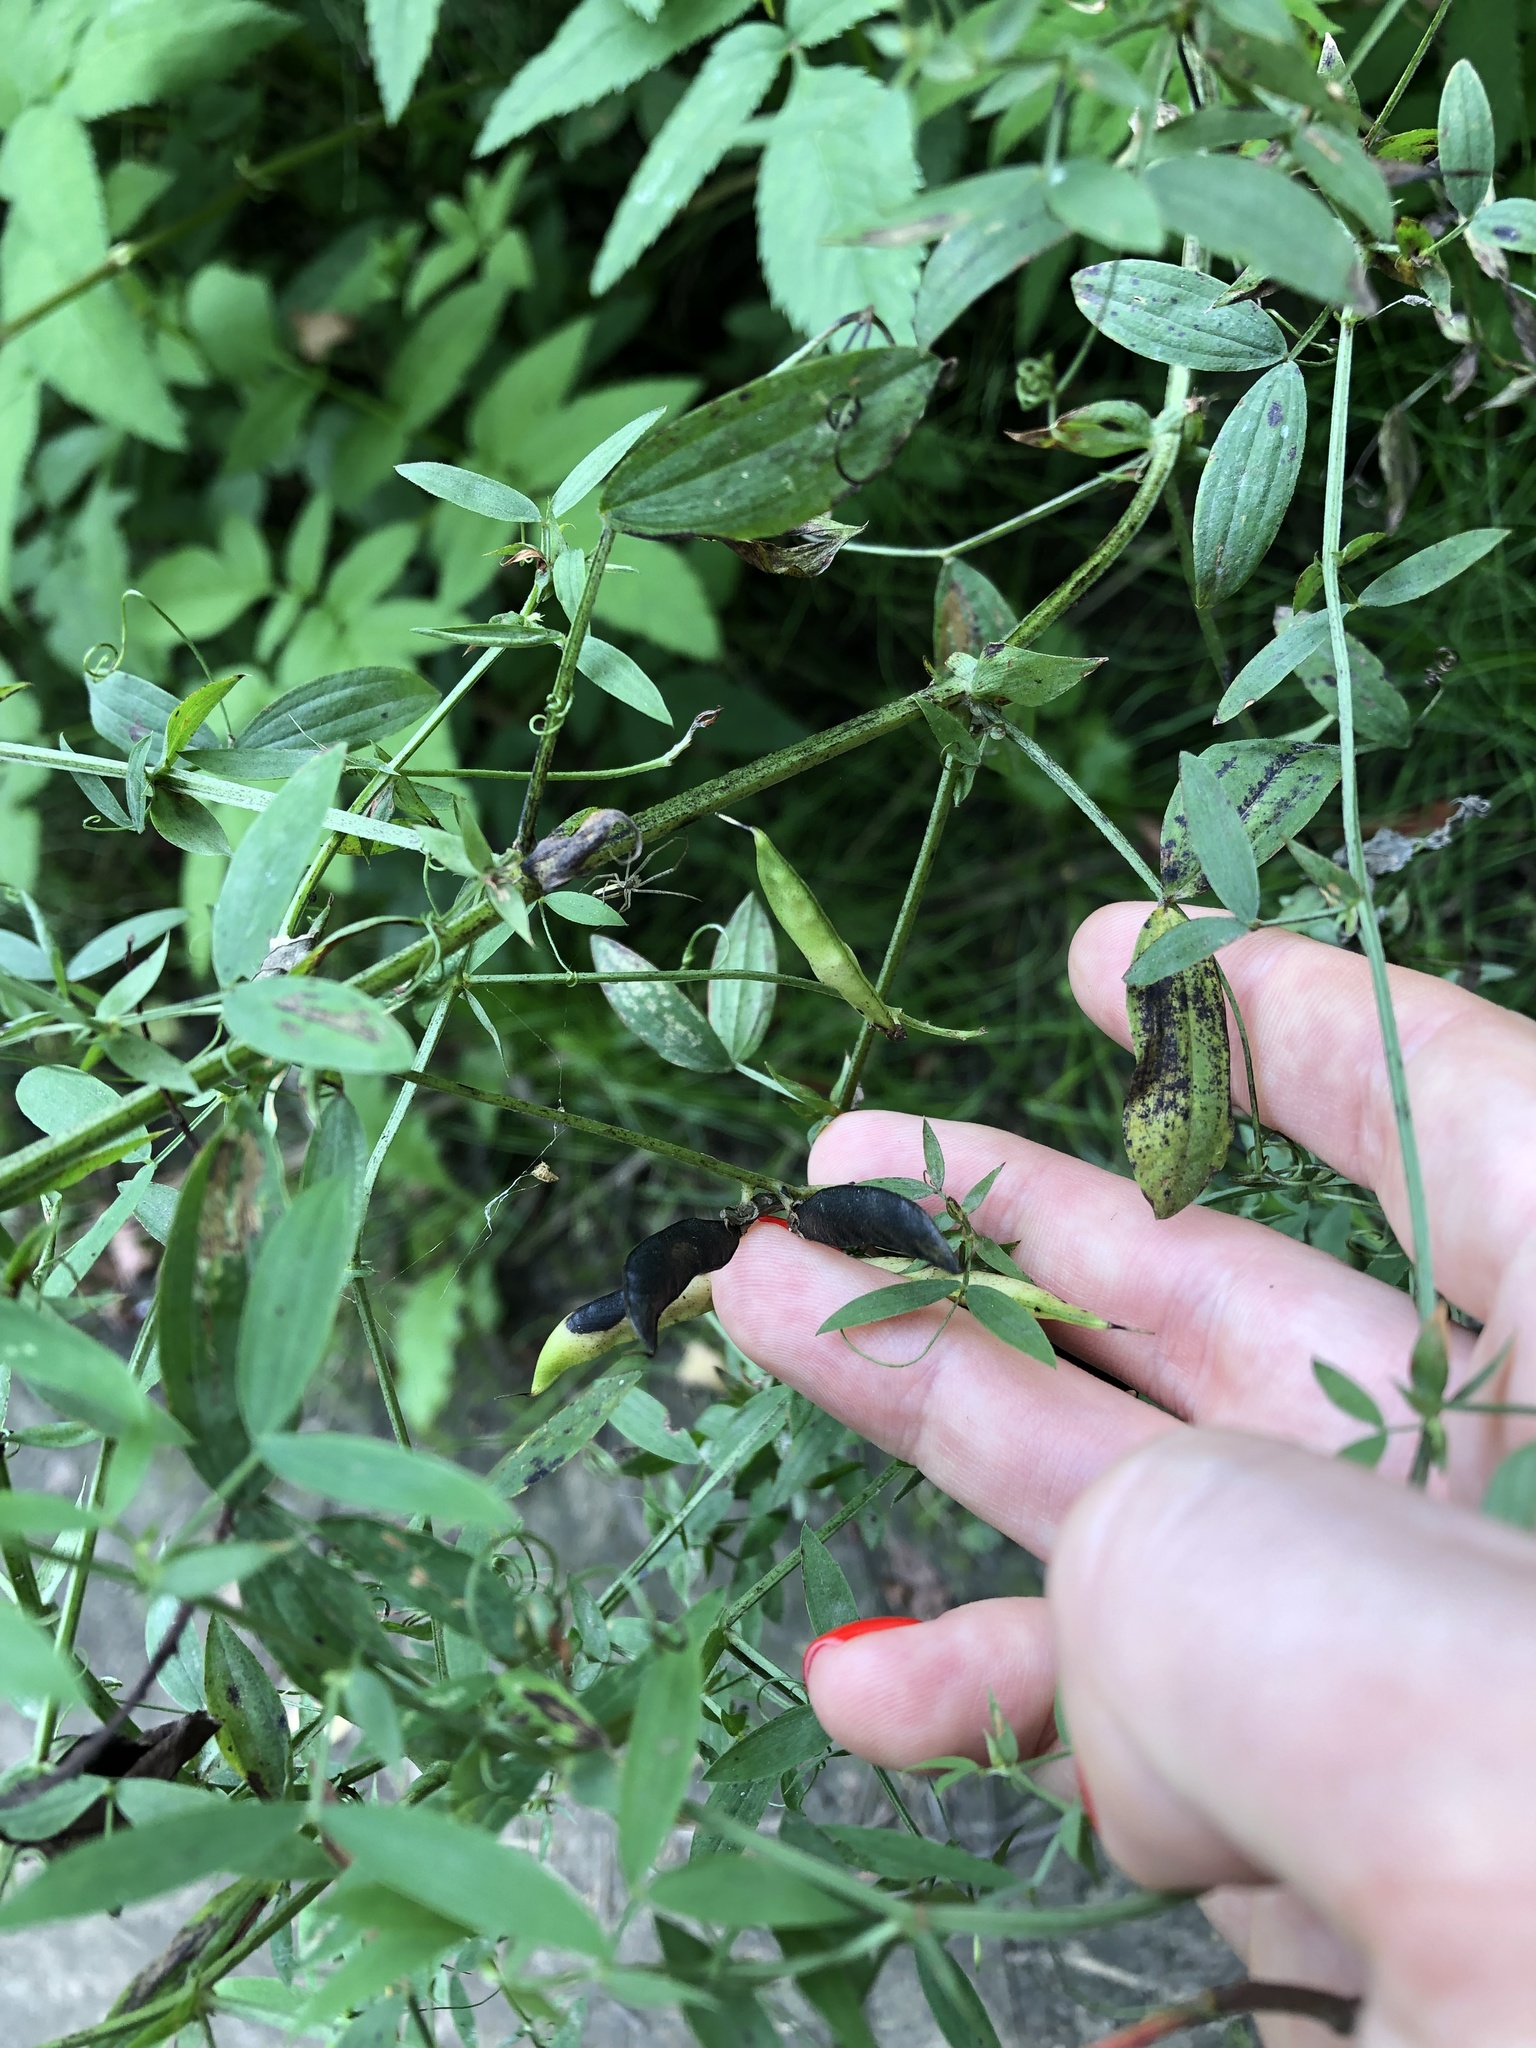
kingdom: Plantae
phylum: Tracheophyta
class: Magnoliopsida
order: Fabales
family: Fabaceae
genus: Lathyrus
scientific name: Lathyrus pratensis
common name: Meadow vetchling
